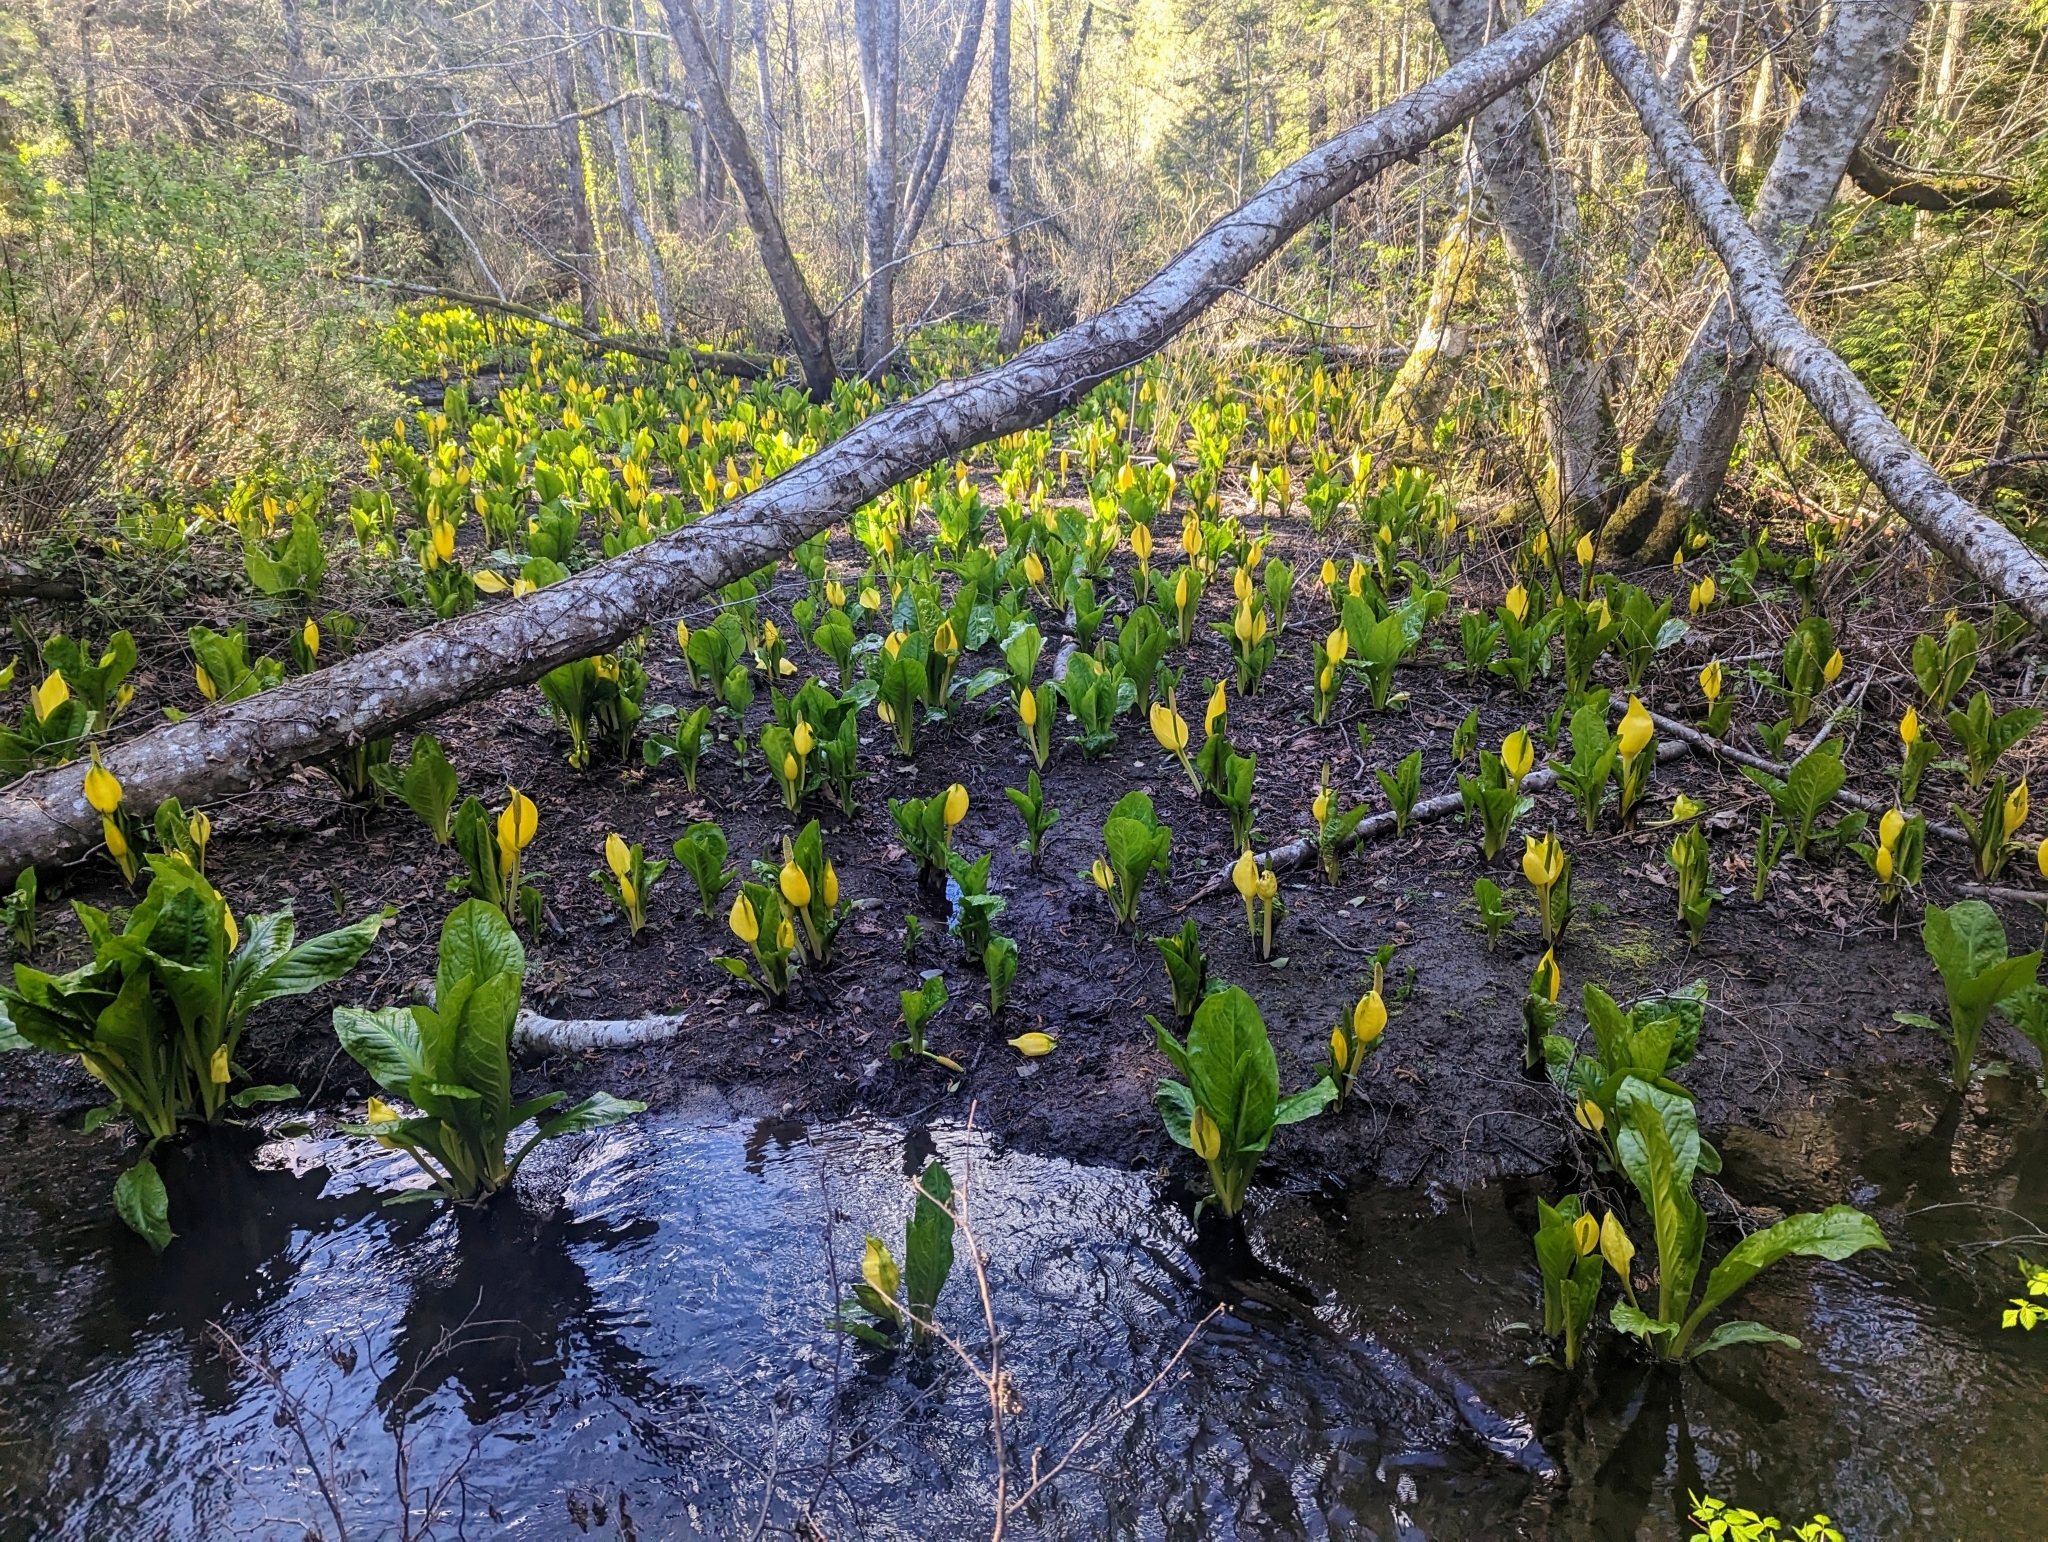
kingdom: Plantae
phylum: Tracheophyta
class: Liliopsida
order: Alismatales
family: Araceae
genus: Lysichiton
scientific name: Lysichiton americanus
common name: American skunk cabbage
